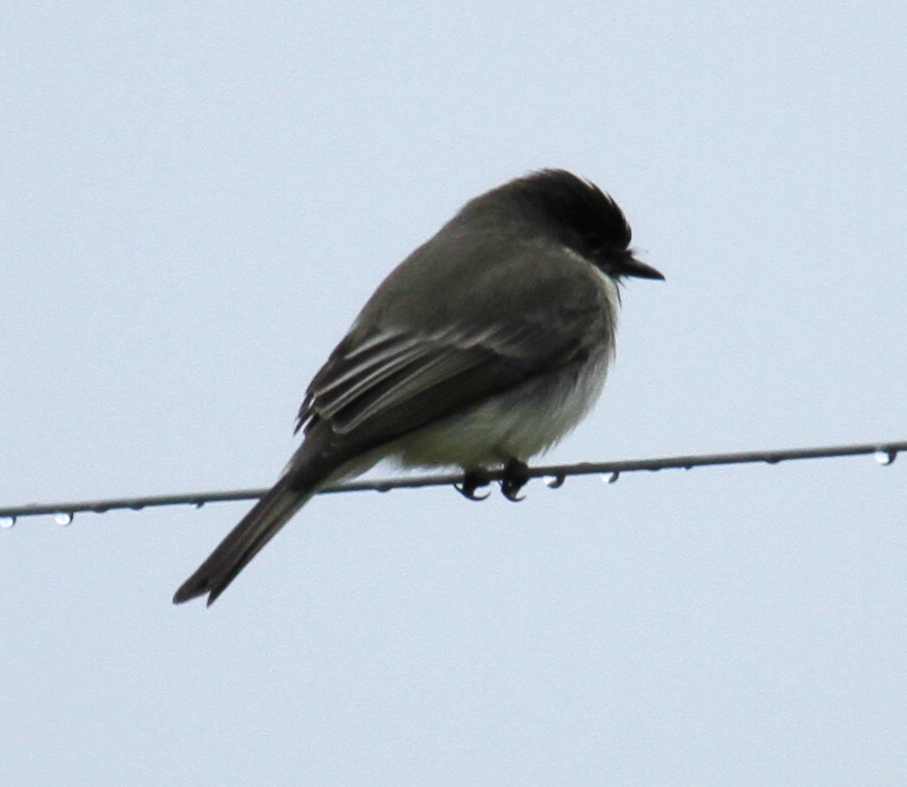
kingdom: Animalia
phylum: Chordata
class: Aves
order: Passeriformes
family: Tyrannidae
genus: Sayornis
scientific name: Sayornis phoebe
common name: Eastern phoebe
